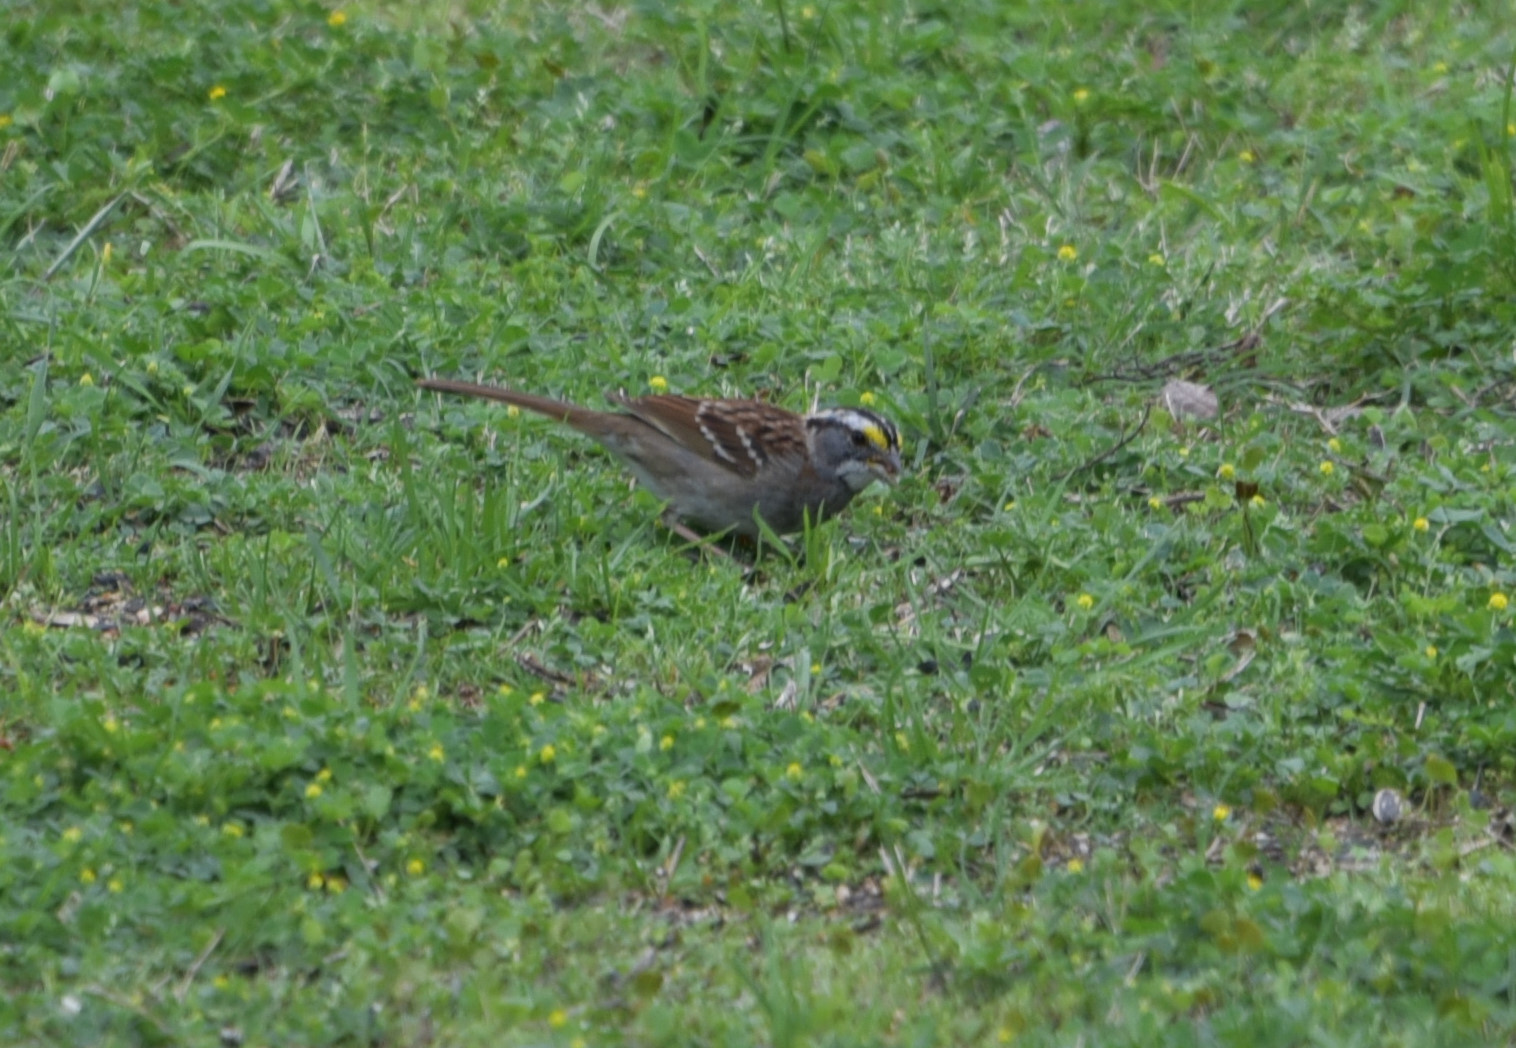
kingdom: Animalia
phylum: Chordata
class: Aves
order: Passeriformes
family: Passerellidae
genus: Zonotrichia
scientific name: Zonotrichia albicollis
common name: White-throated sparrow
